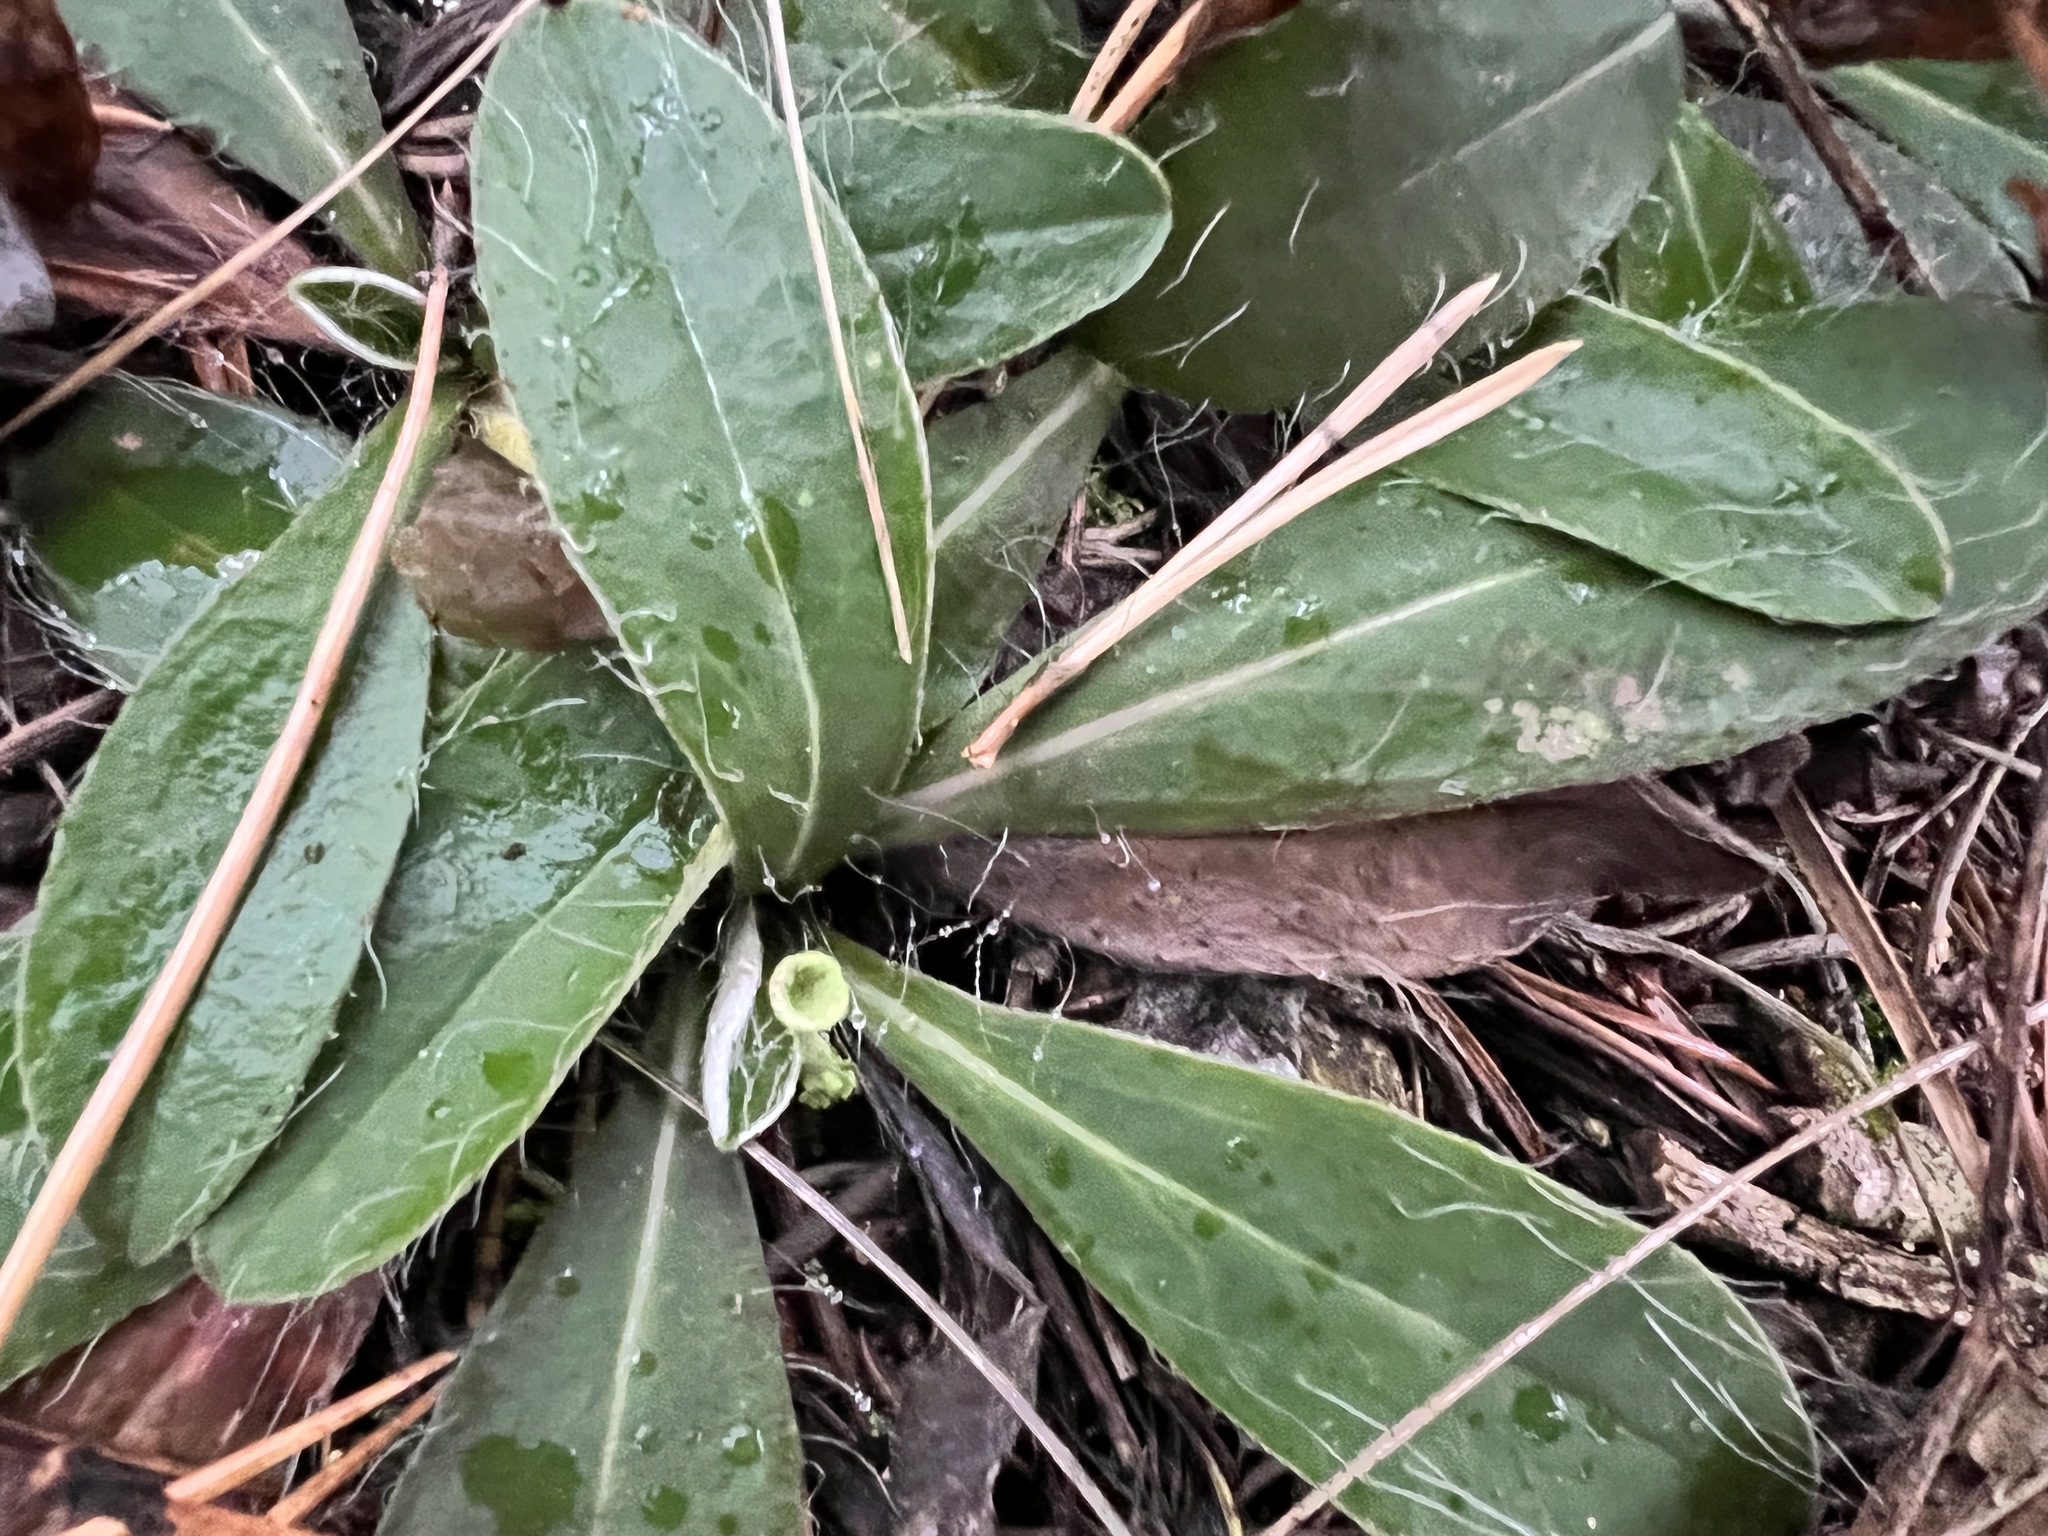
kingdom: Plantae
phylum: Tracheophyta
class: Magnoliopsida
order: Asterales
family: Asteraceae
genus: Pilosella
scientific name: Pilosella officinarum
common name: Mouse-ear hawkweed
